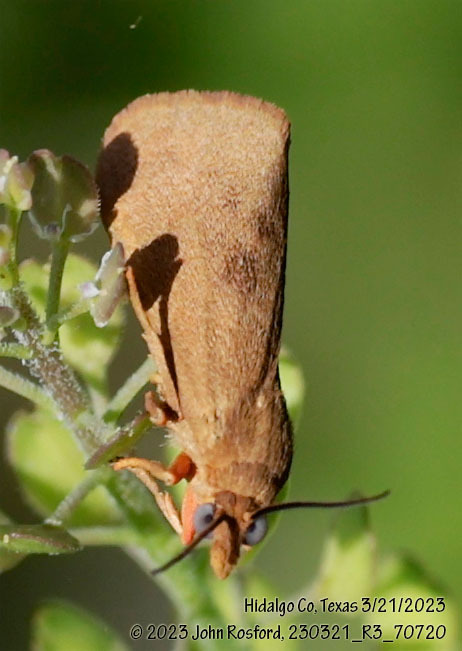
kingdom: Animalia
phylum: Arthropoda
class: Insecta
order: Lepidoptera
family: Erebidae
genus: Virbia
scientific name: Virbia aurantiaca
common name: Orange virbia moth
